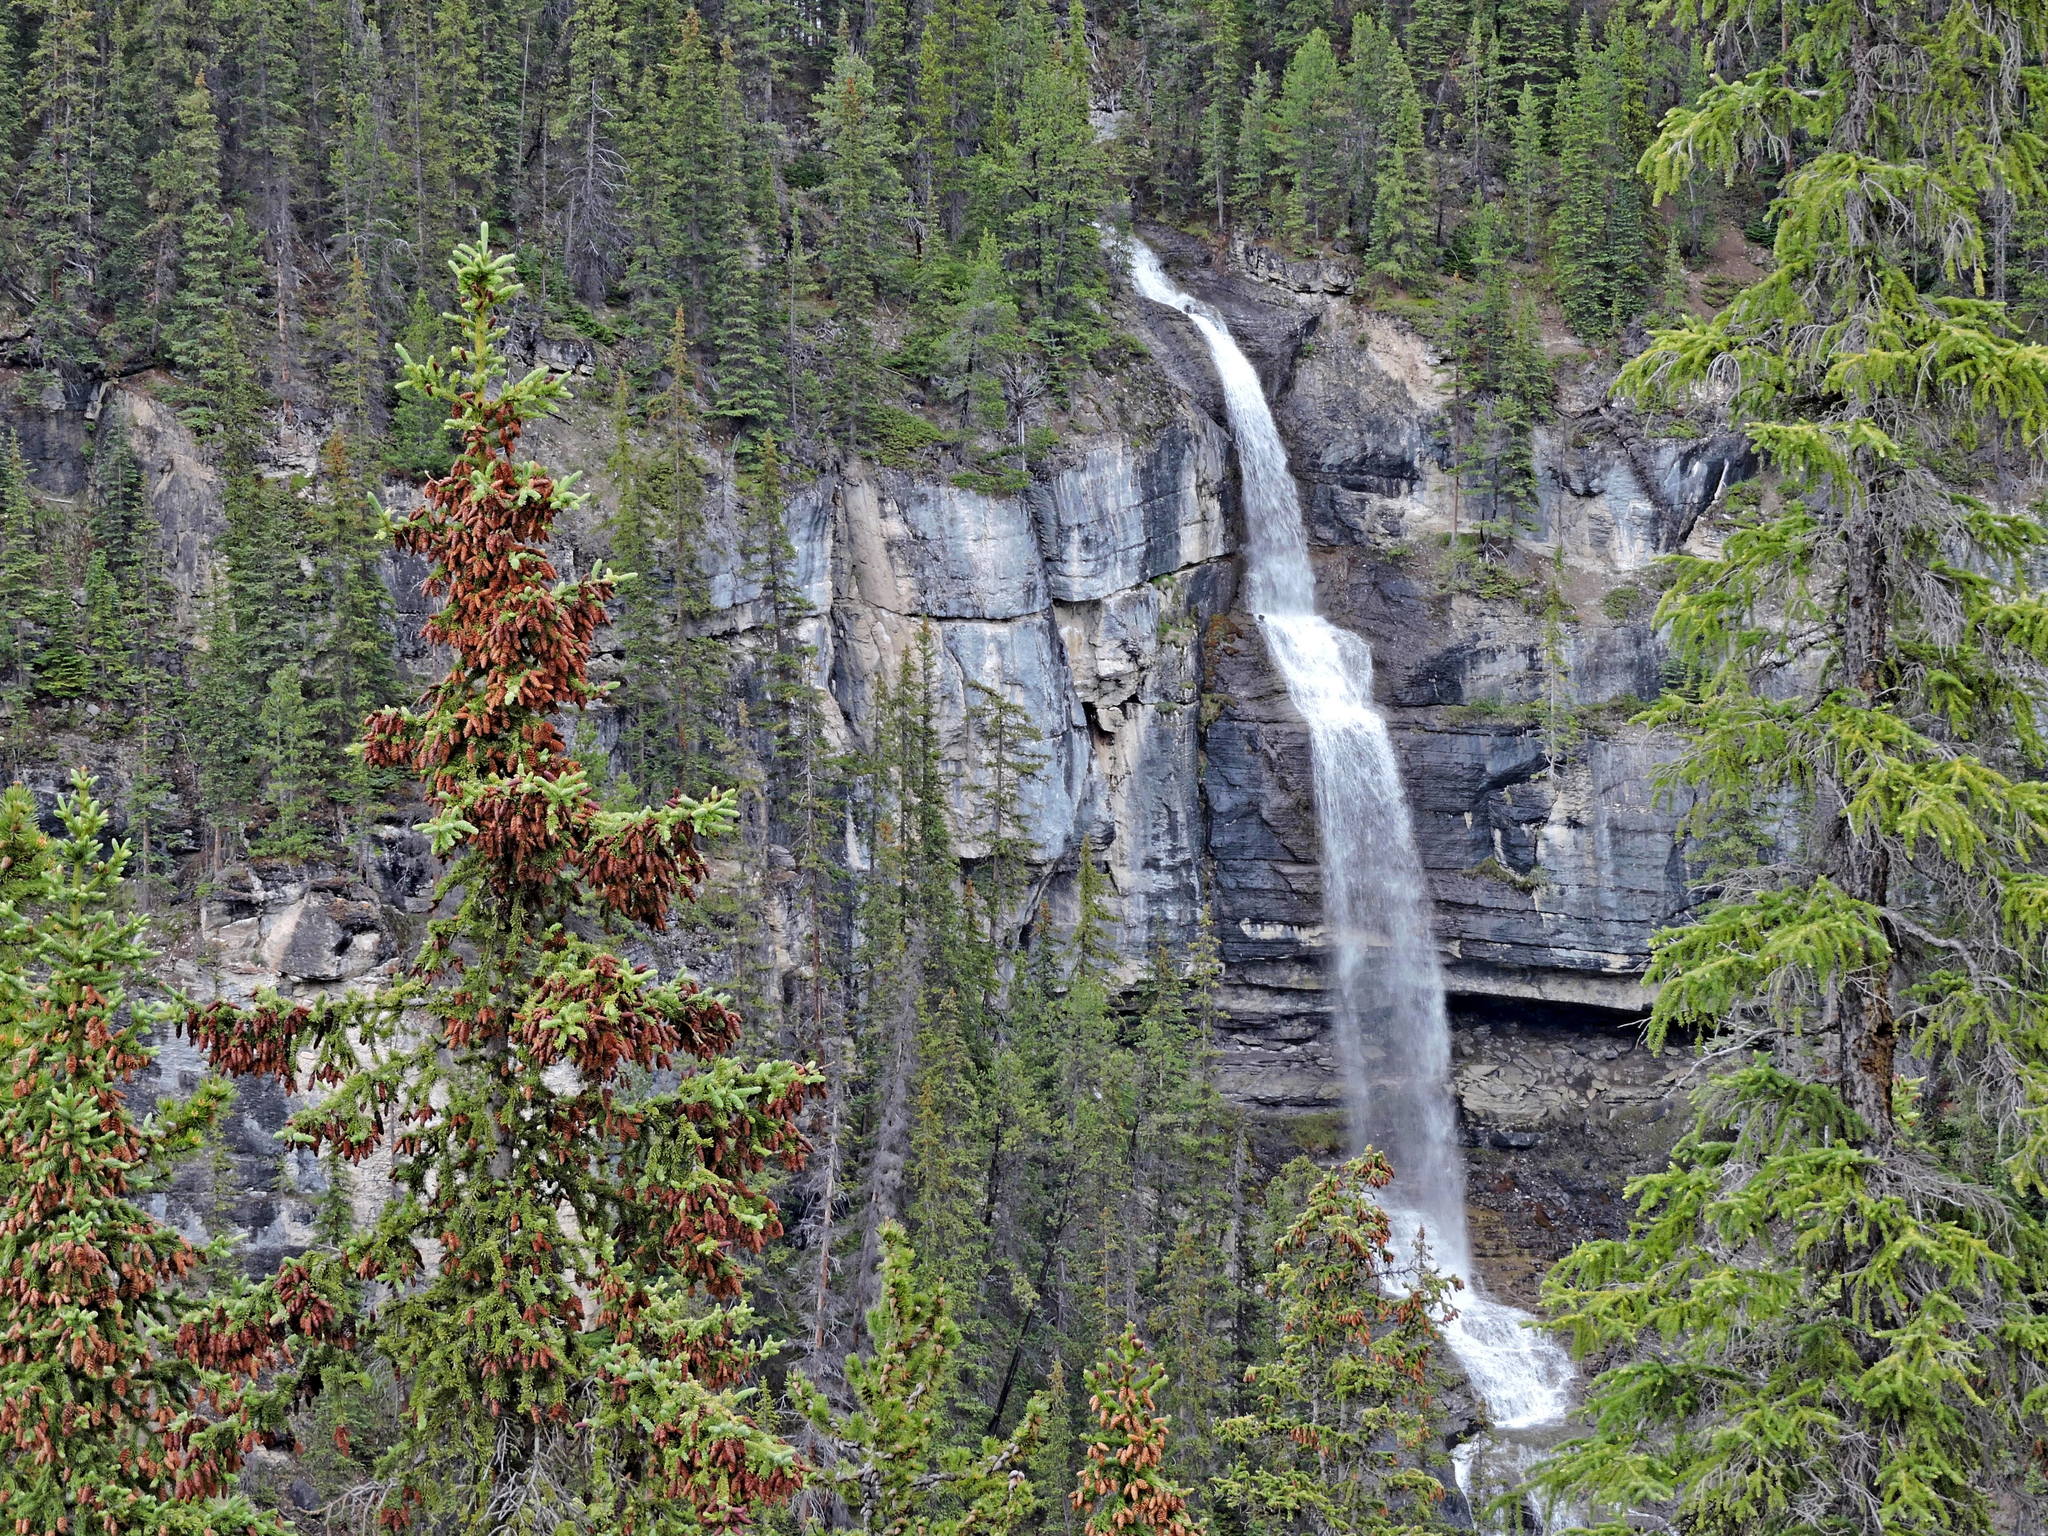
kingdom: Plantae
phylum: Tracheophyta
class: Pinopsida
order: Pinales
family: Pinaceae
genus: Picea
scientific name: Picea engelmannii
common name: Engelmann spruce
